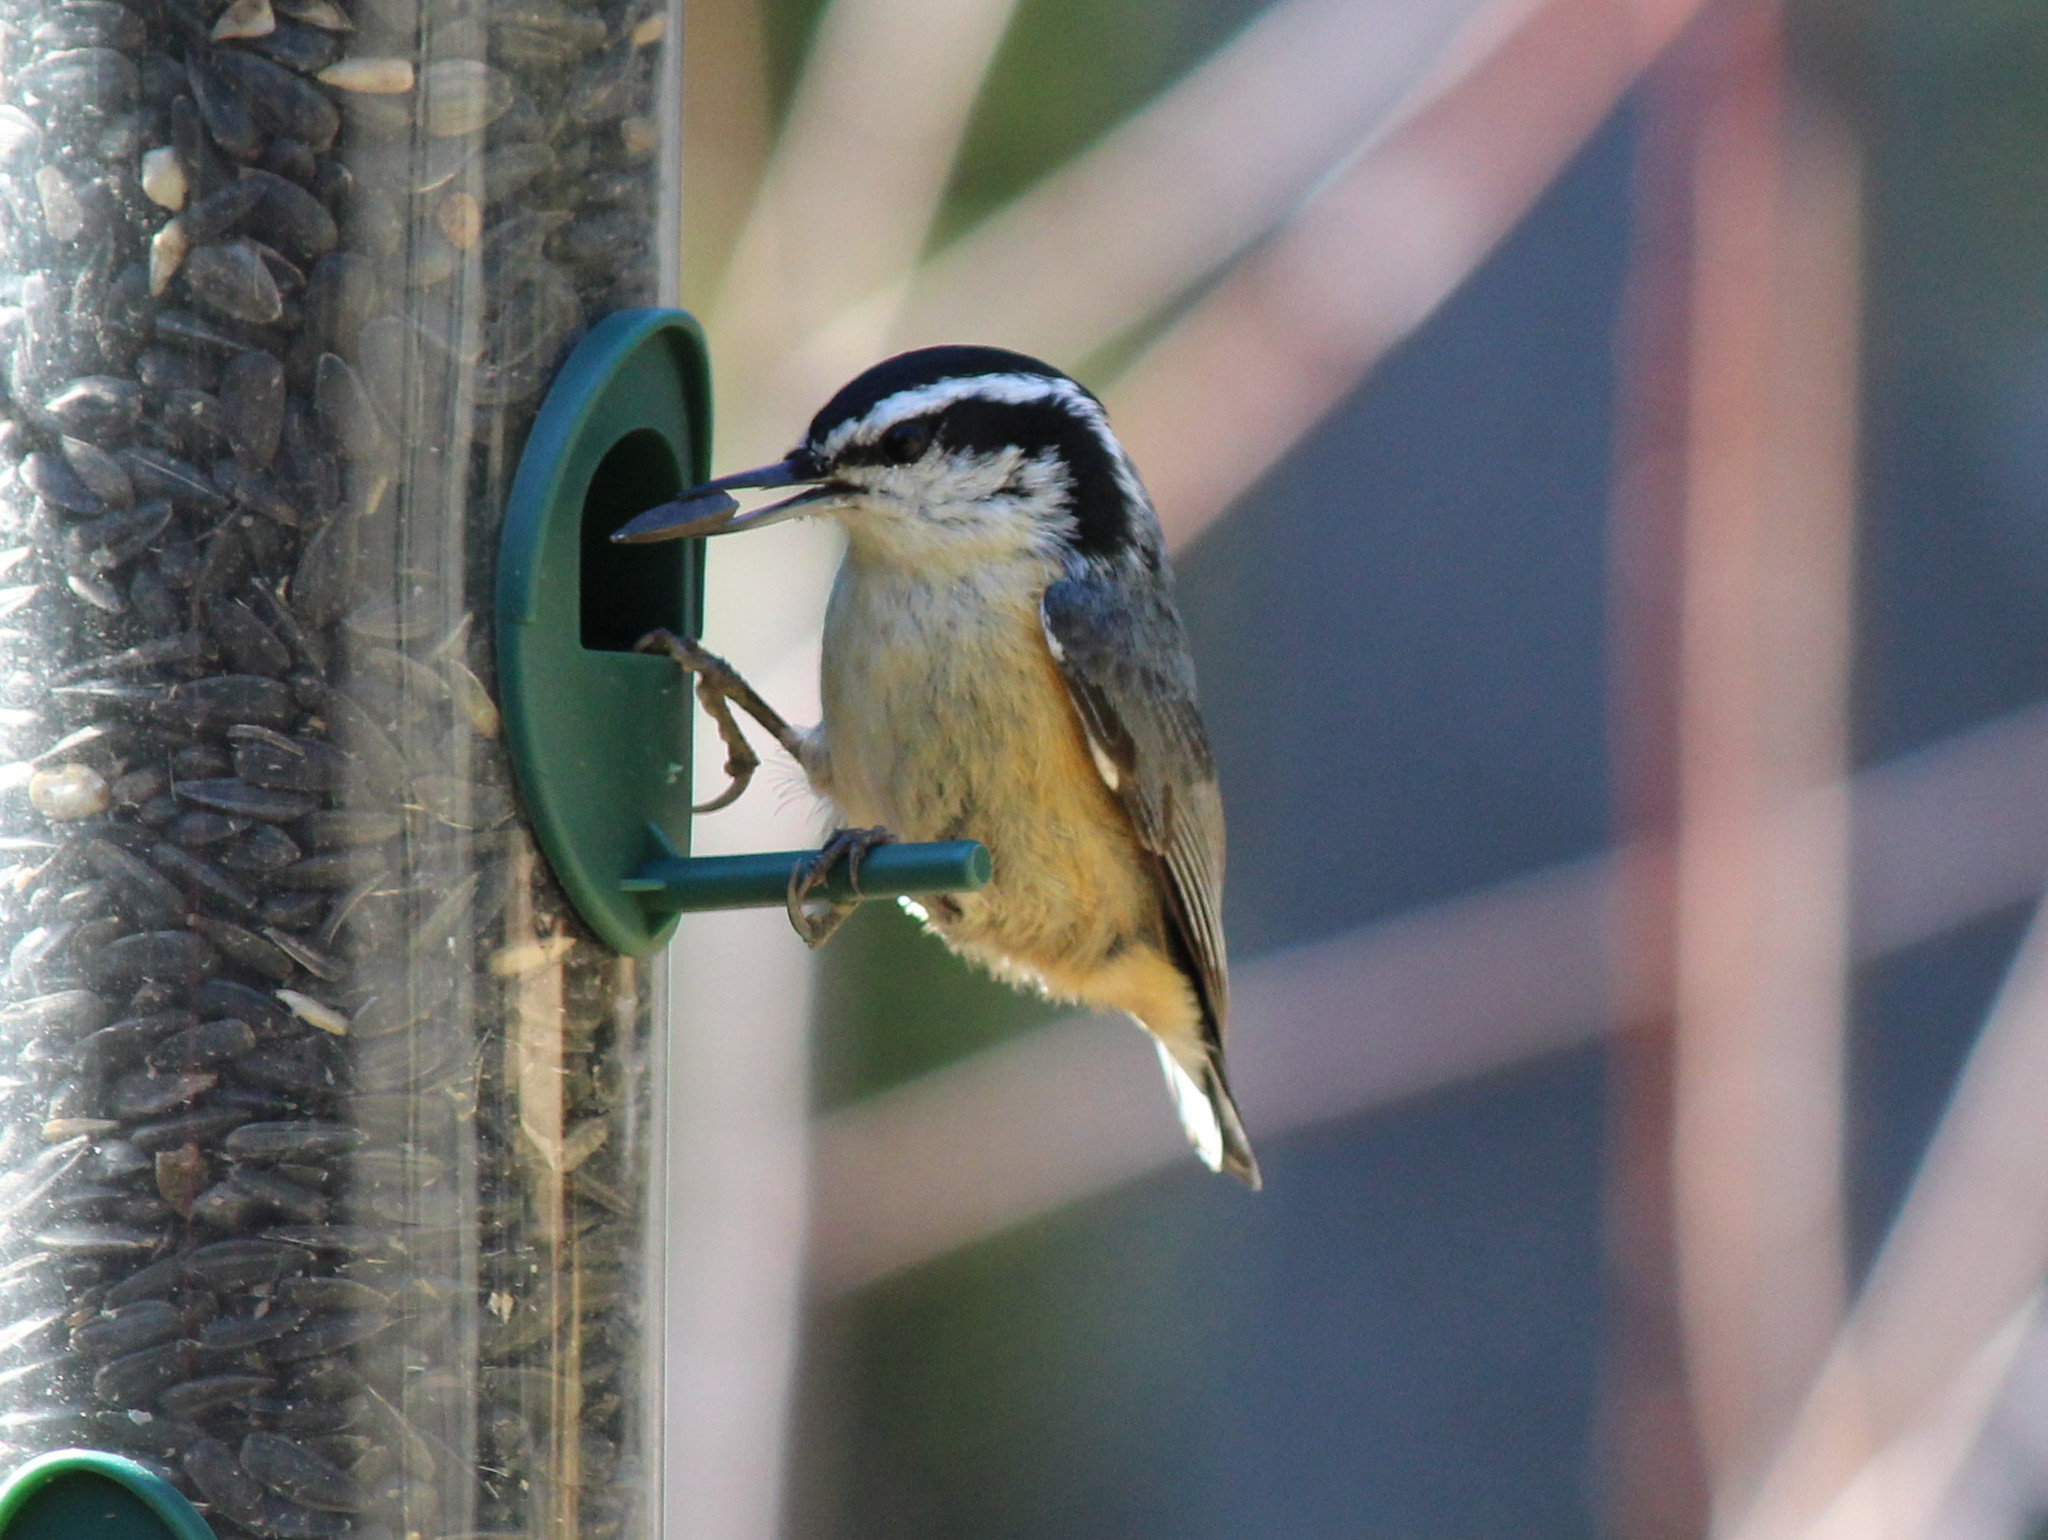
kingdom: Animalia
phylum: Chordata
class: Aves
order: Passeriformes
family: Sittidae
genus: Sitta
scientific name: Sitta canadensis
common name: Red-breasted nuthatch
